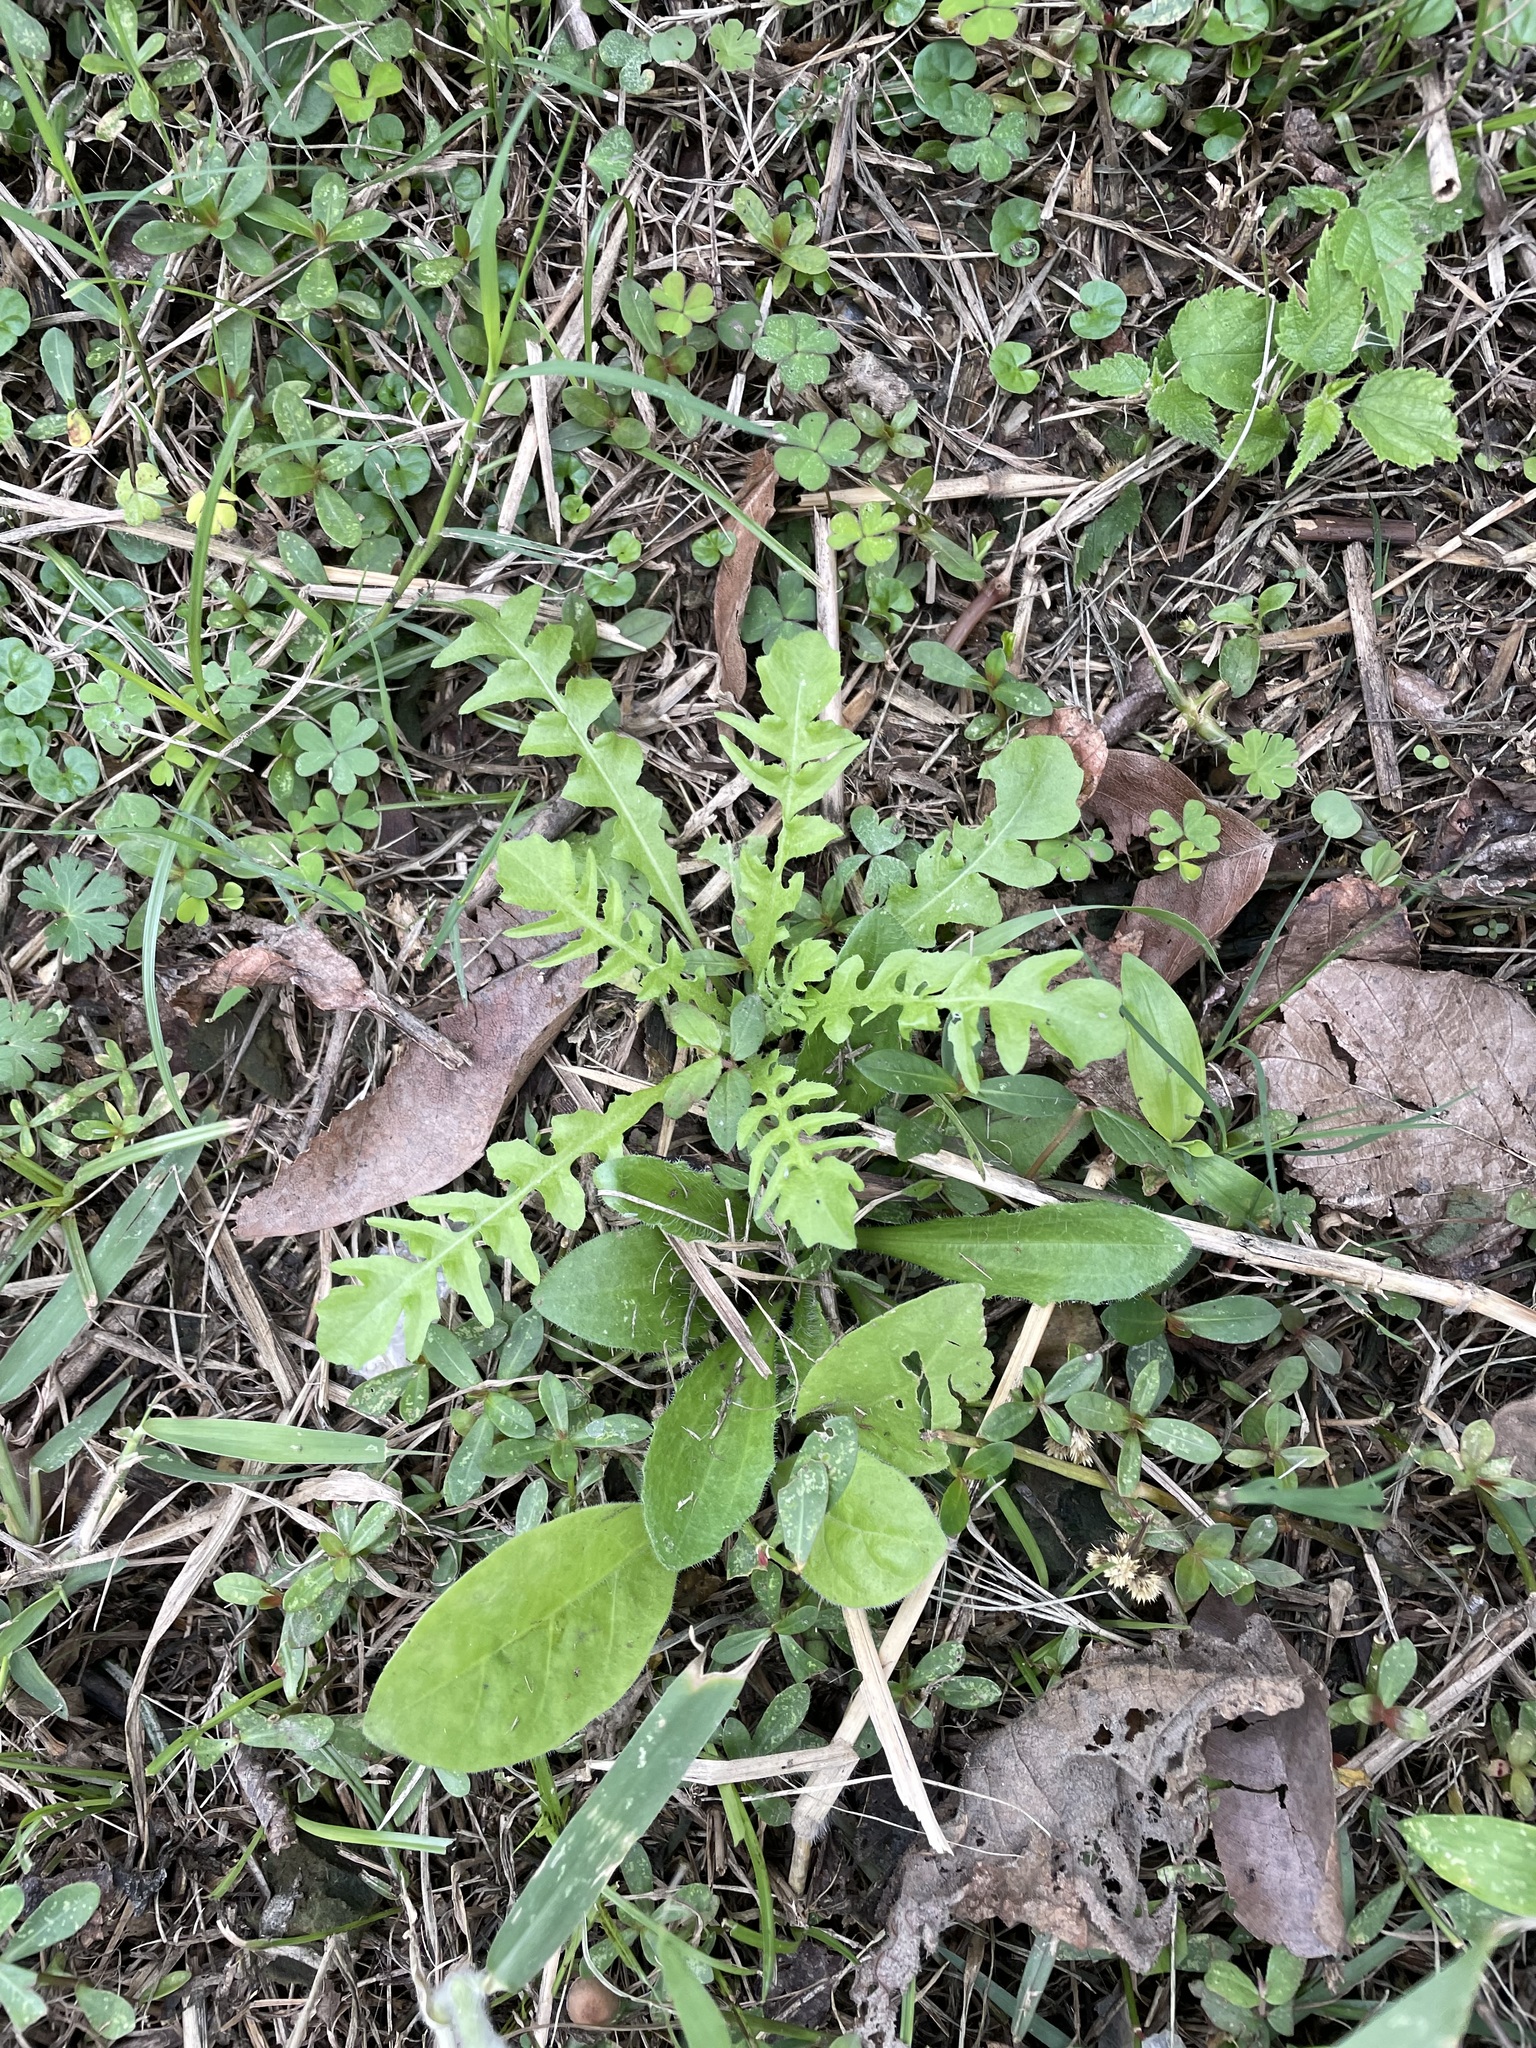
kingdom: Plantae
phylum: Tracheophyta
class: Magnoliopsida
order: Asterales
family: Asteraceae
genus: Youngia
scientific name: Youngia japonica
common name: Oriental false hawksbeard
